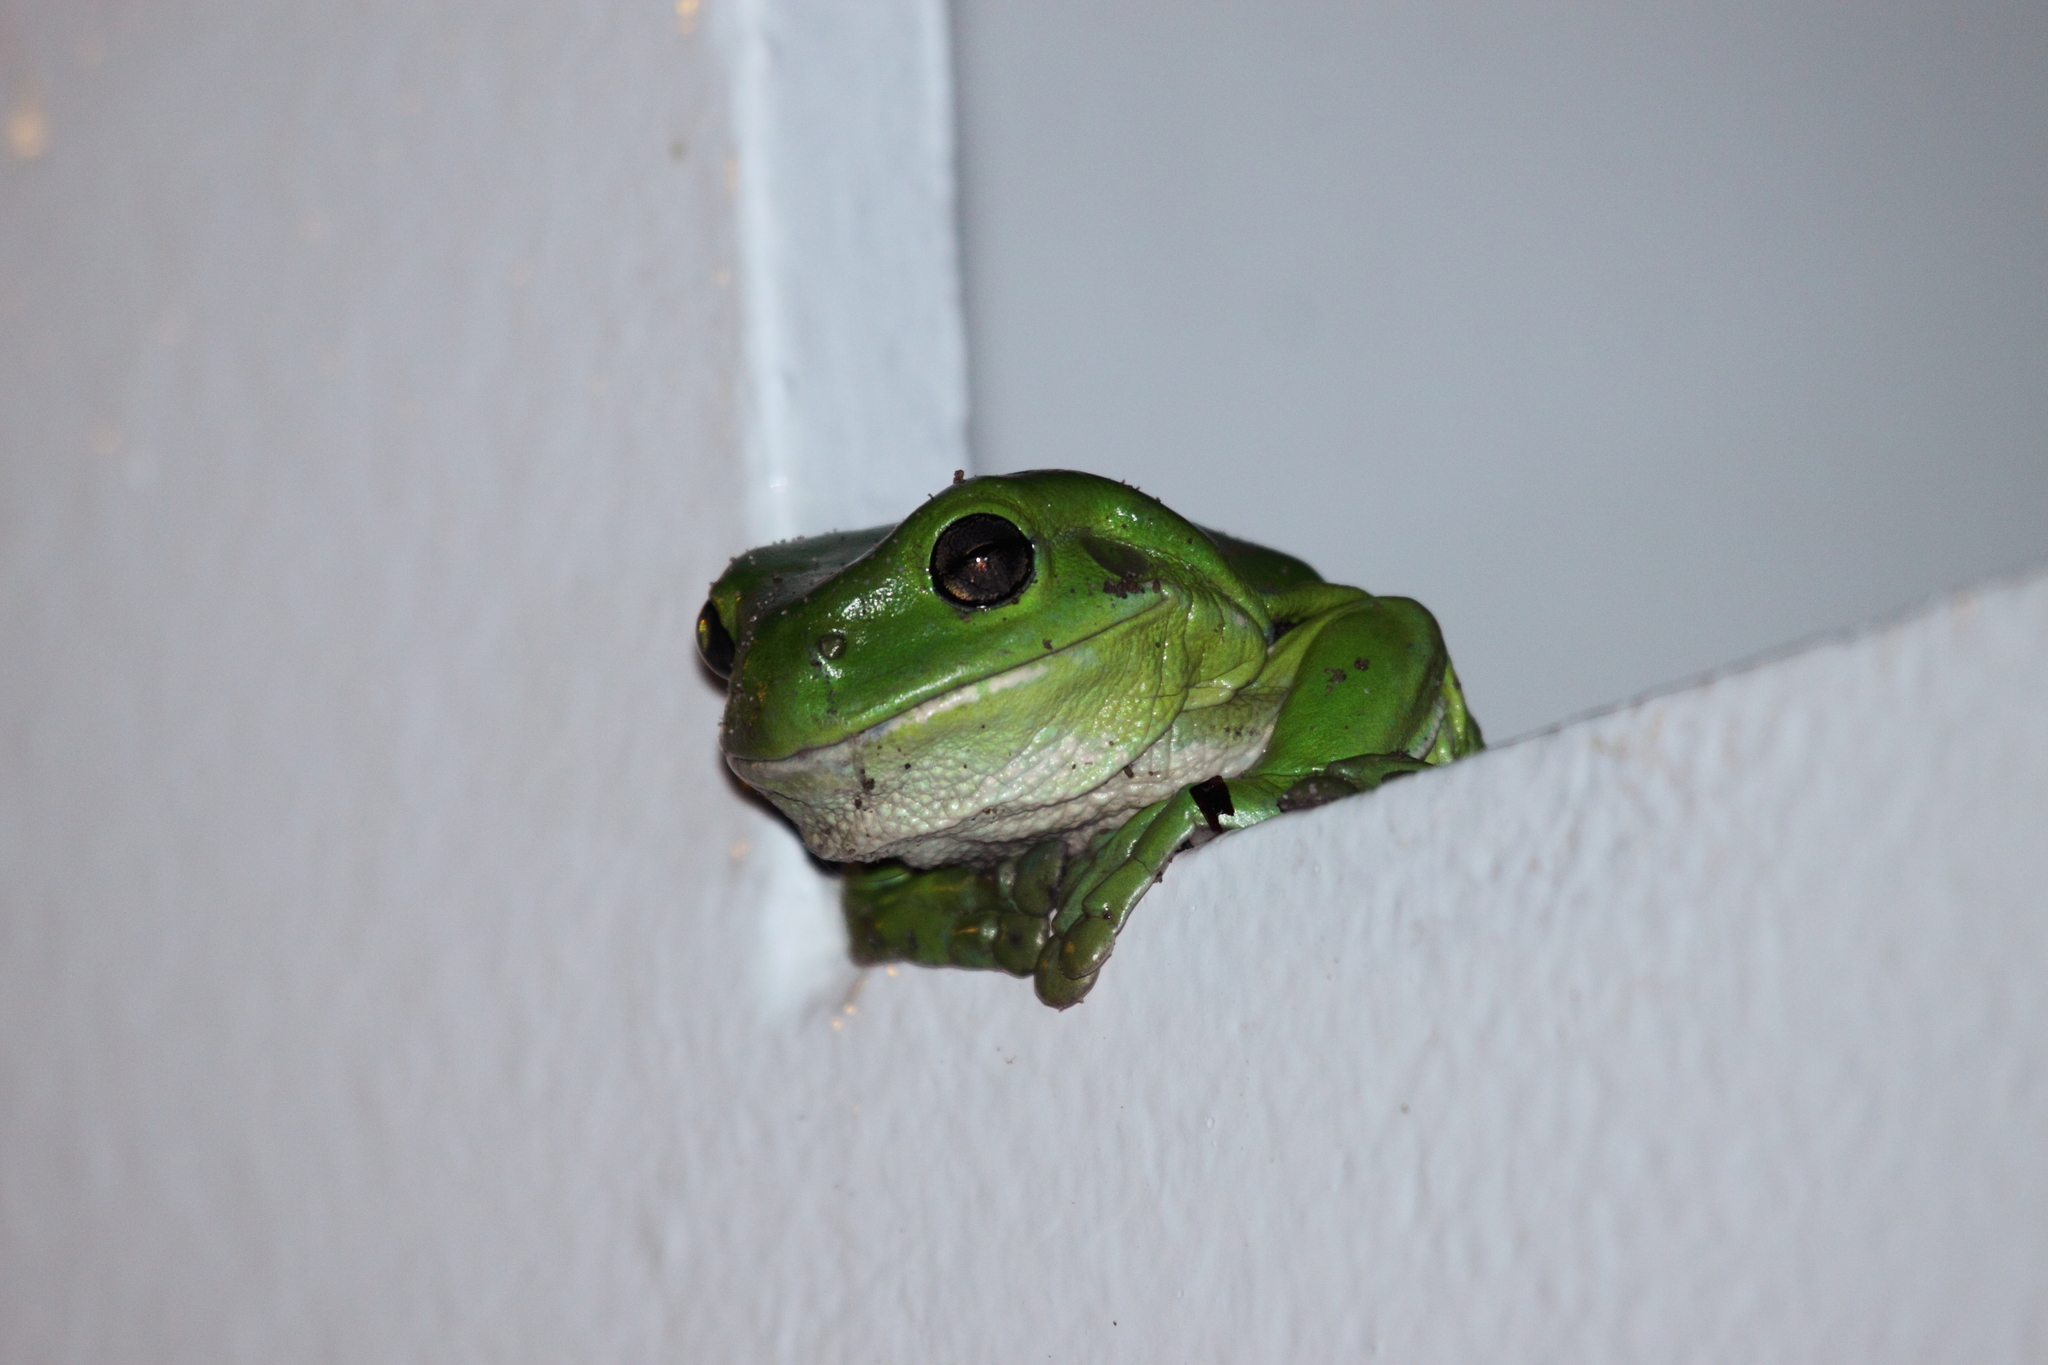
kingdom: Animalia
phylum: Chordata
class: Amphibia
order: Anura
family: Pelodryadidae
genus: Ranoidea
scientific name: Ranoidea caerulea
